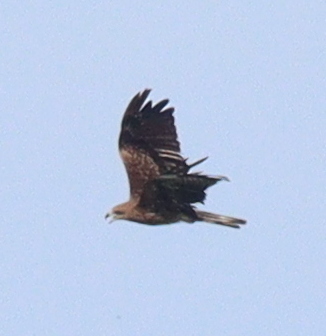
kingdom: Animalia
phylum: Chordata
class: Aves
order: Accipitriformes
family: Accipitridae
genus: Milvus
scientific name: Milvus migrans
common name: Black kite
